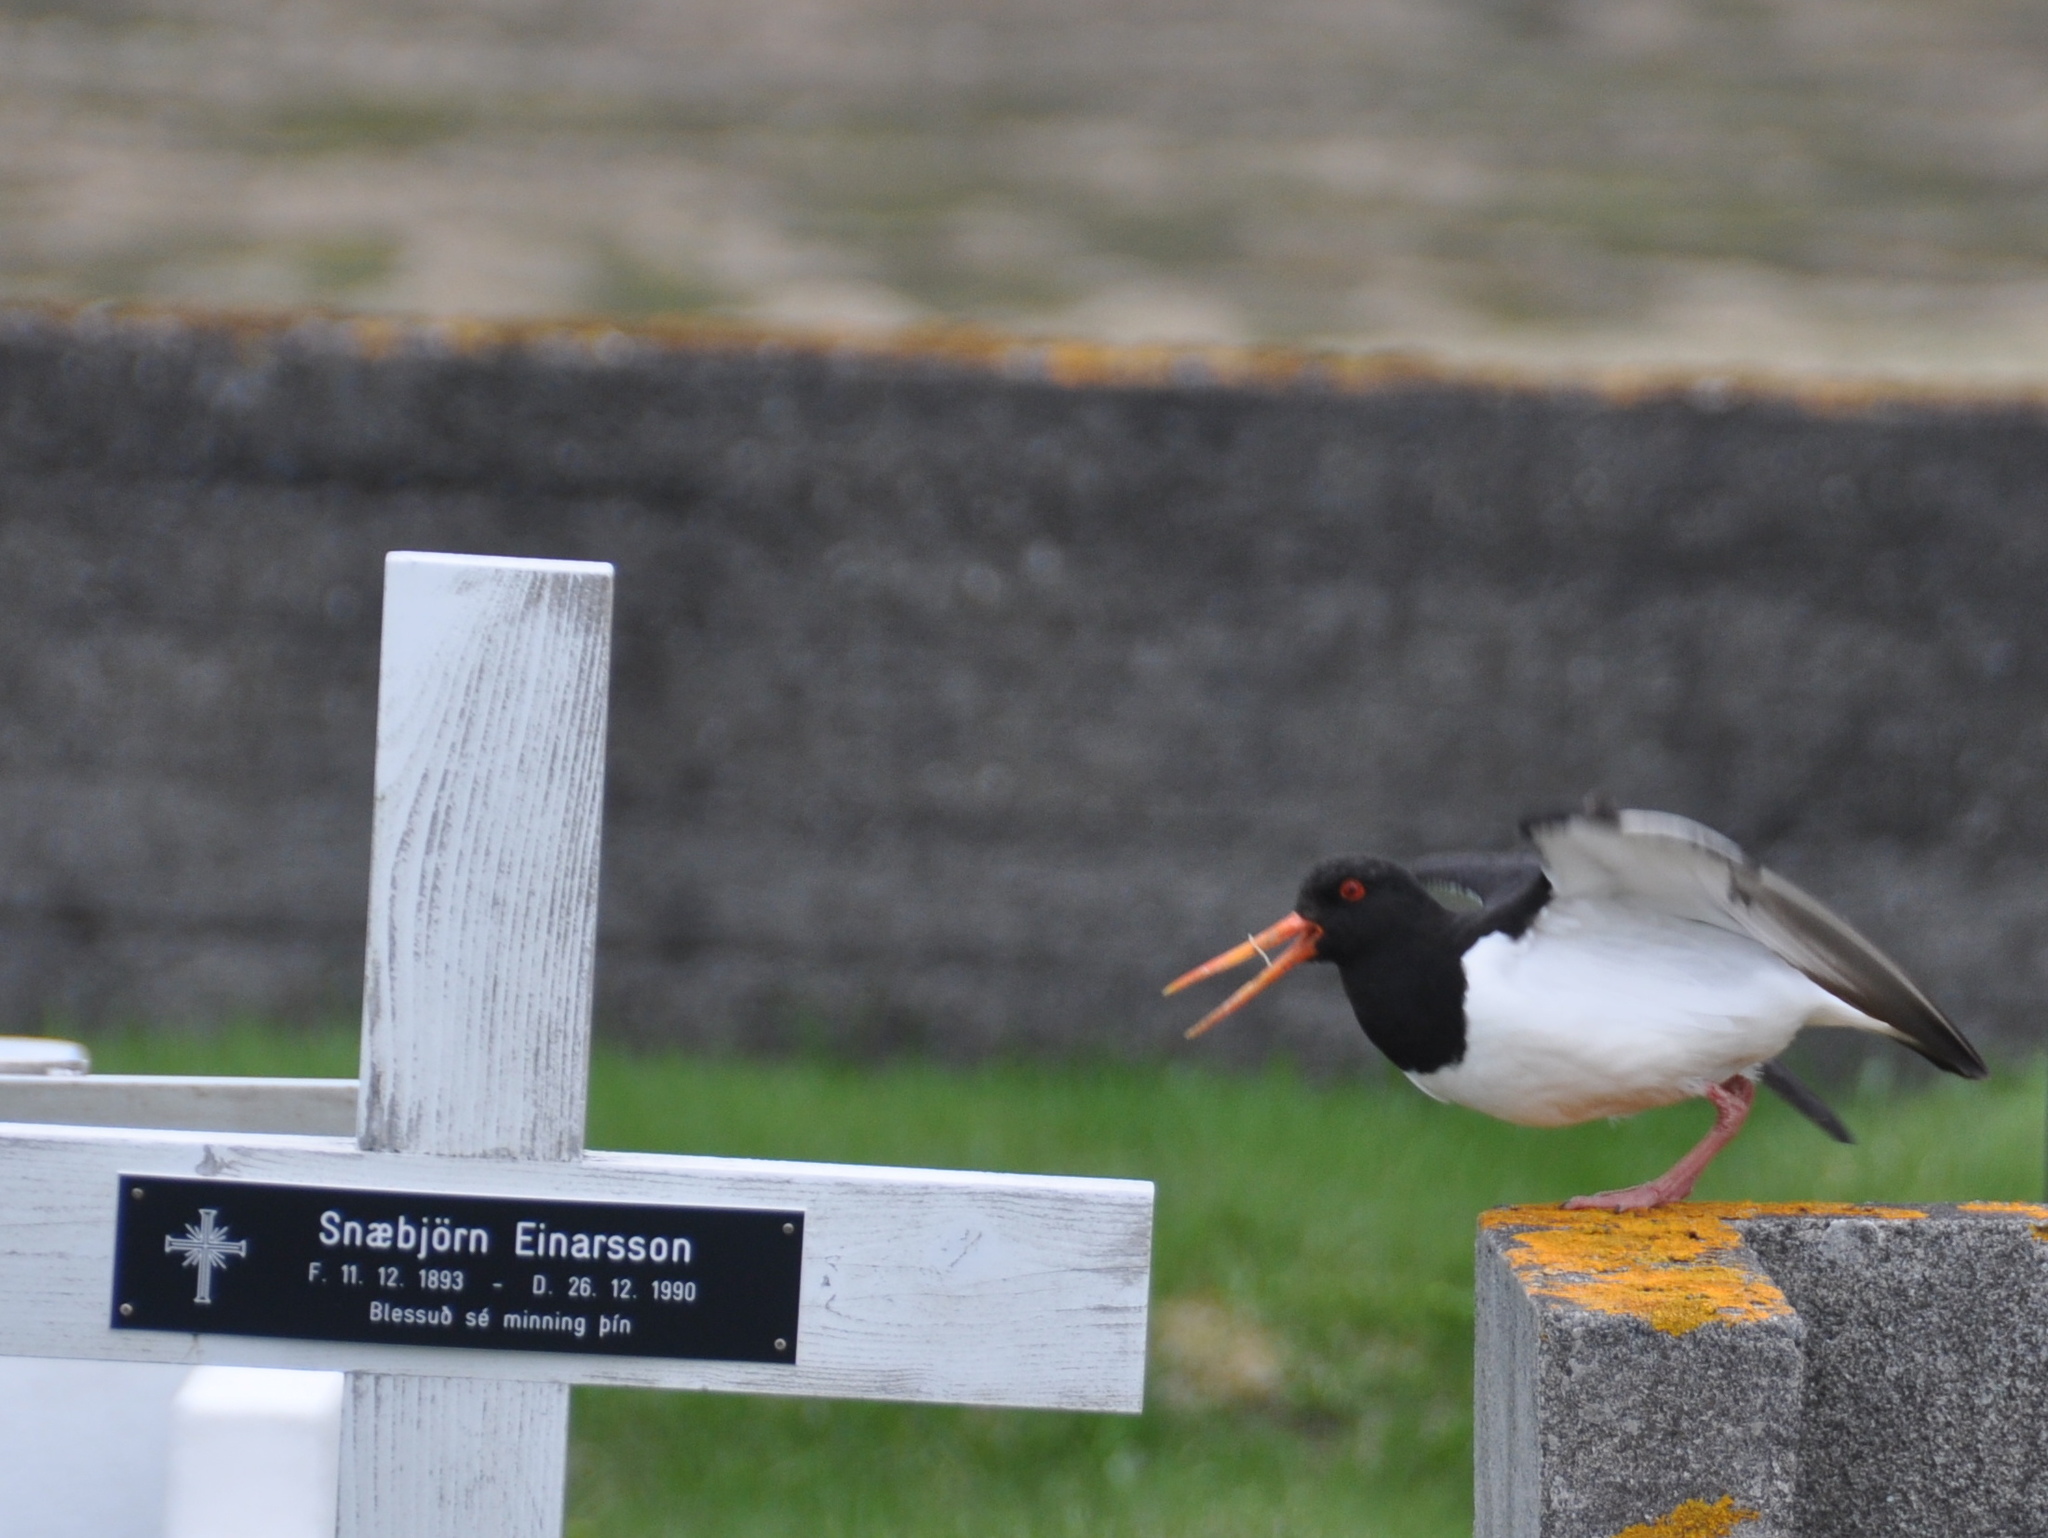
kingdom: Animalia
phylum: Chordata
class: Aves
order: Charadriiformes
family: Haematopodidae
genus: Haematopus
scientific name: Haematopus ostralegus
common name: Eurasian oystercatcher
